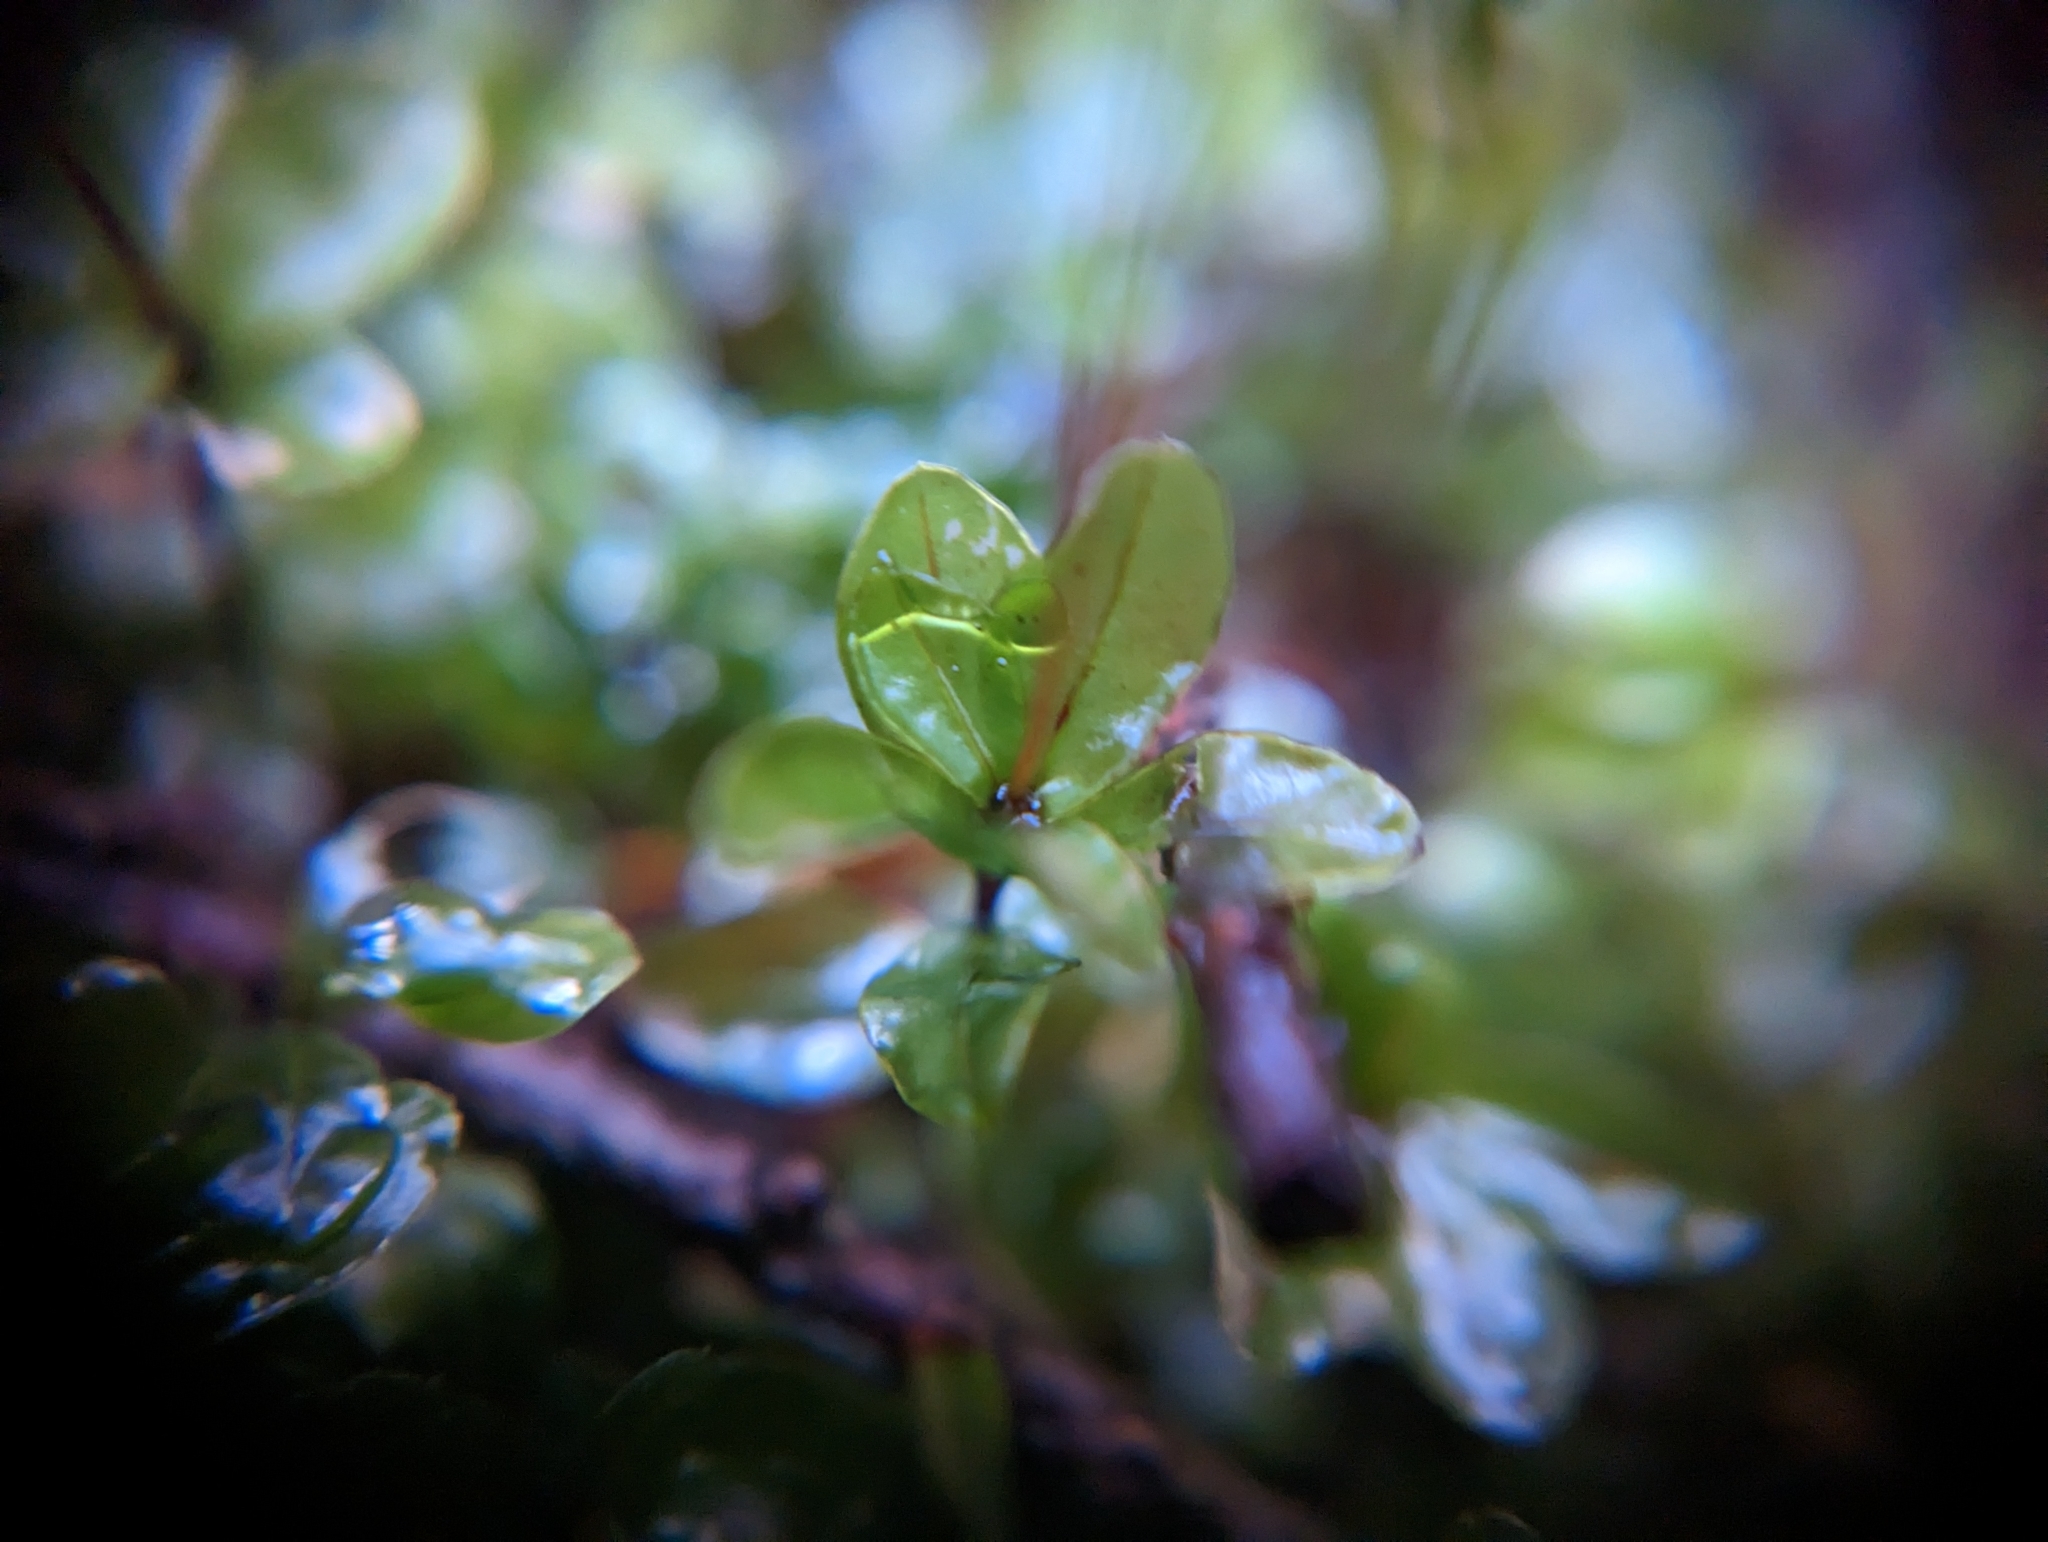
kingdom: Plantae
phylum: Bryophyta
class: Bryopsida
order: Bryales
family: Mniaceae
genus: Rhizomnium
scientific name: Rhizomnium glabrescens
